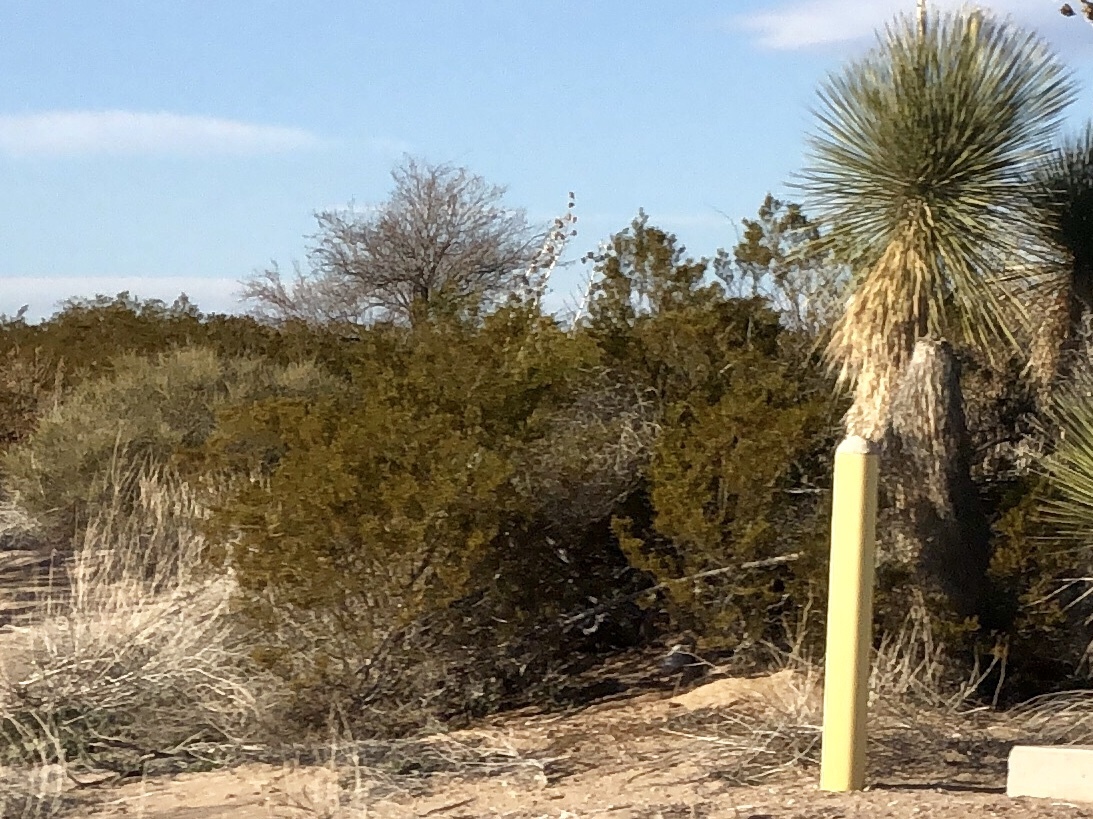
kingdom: Plantae
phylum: Tracheophyta
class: Magnoliopsida
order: Zygophyllales
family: Zygophyllaceae
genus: Larrea
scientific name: Larrea tridentata
